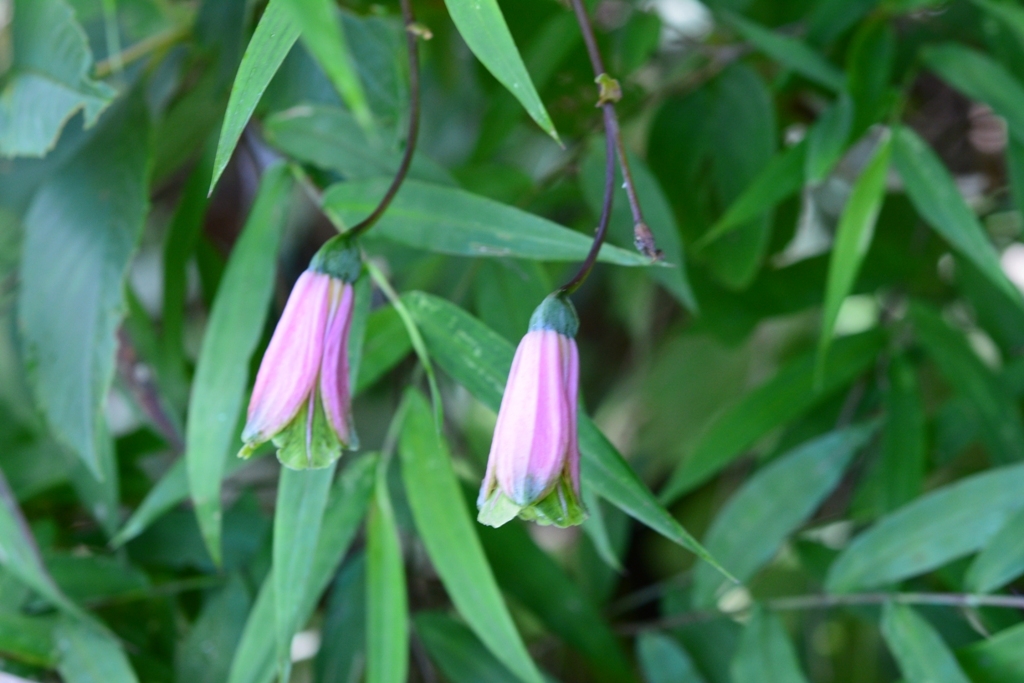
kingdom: Plantae
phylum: Tracheophyta
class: Liliopsida
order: Liliales
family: Alstroemeriaceae
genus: Bomarea
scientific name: Bomarea edulis
